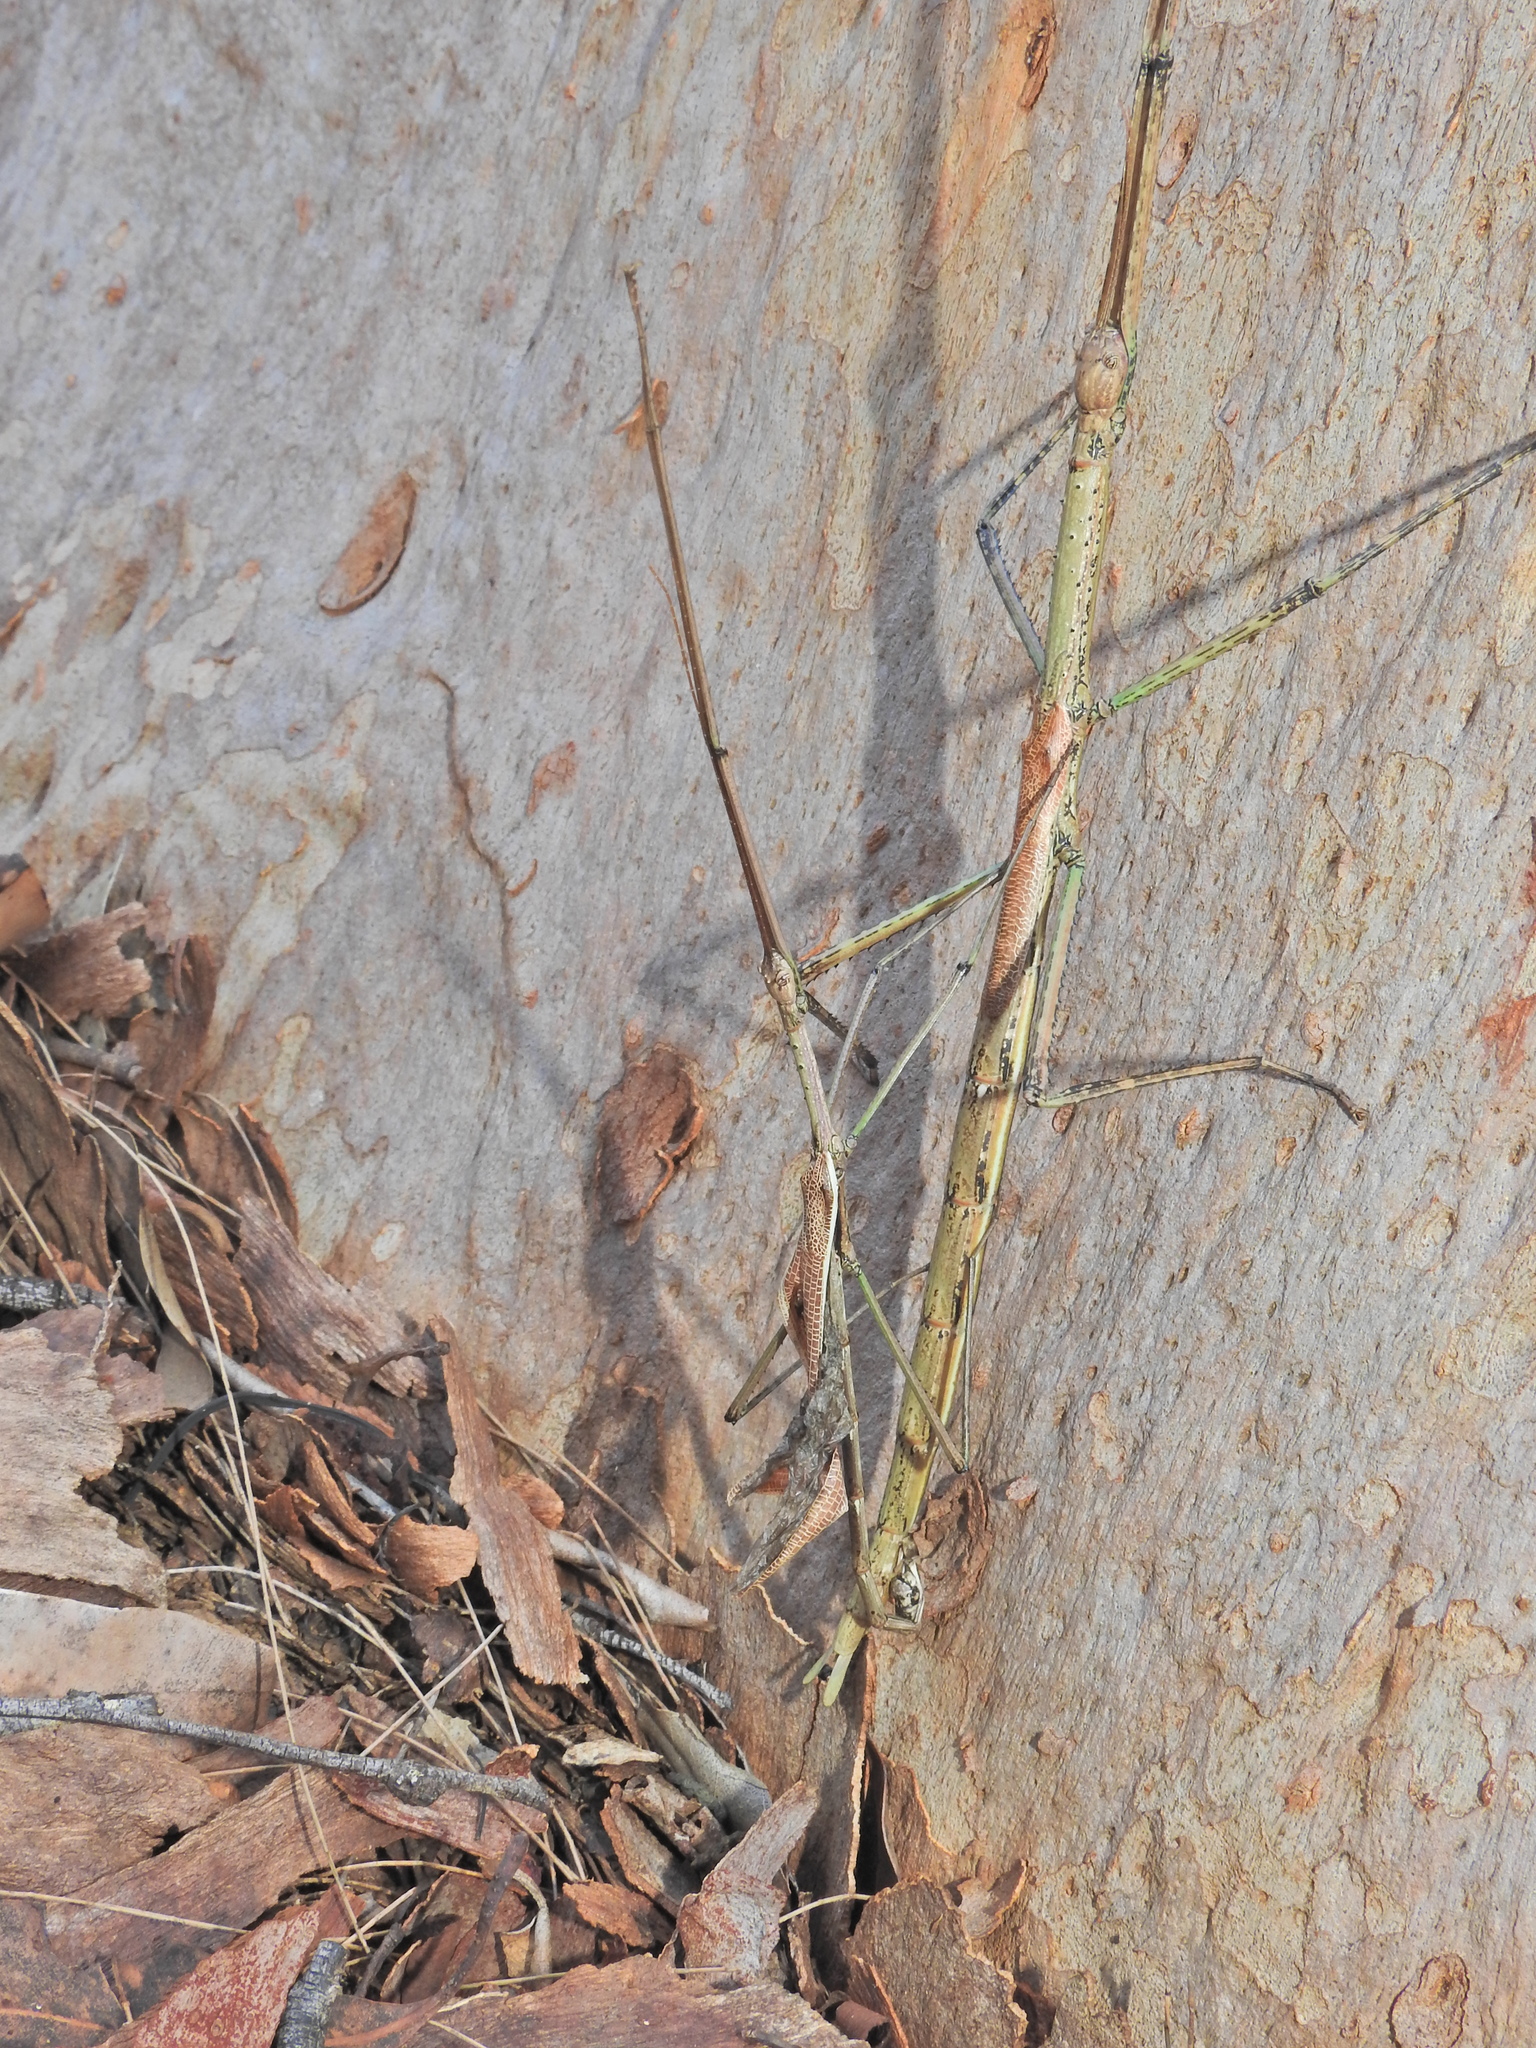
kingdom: Animalia
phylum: Arthropoda
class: Insecta
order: Phasmida
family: Phasmatidae
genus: Anchiale
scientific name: Anchiale austrotessulata
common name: Tessellated stick-insect
